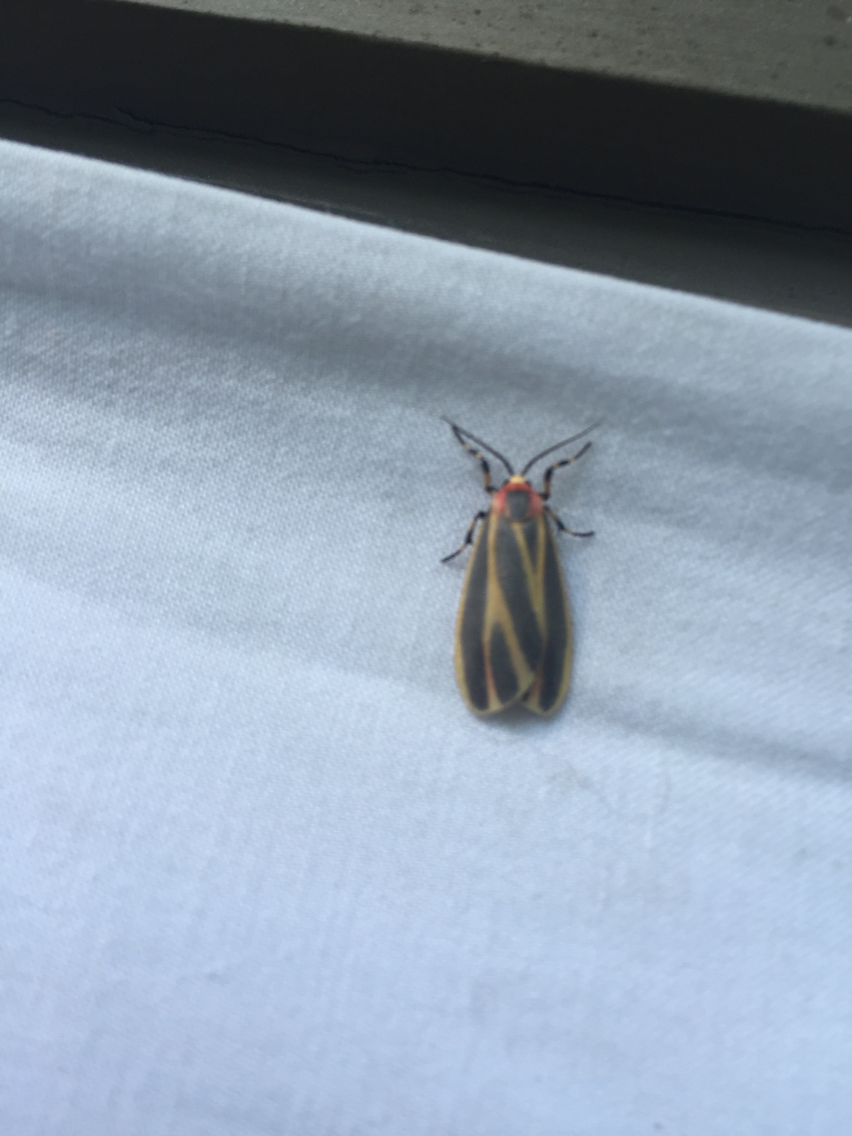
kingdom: Animalia
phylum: Arthropoda
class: Insecta
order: Lepidoptera
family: Erebidae
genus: Hypoprepia
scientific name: Hypoprepia fucosa
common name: Painted lichen moth
